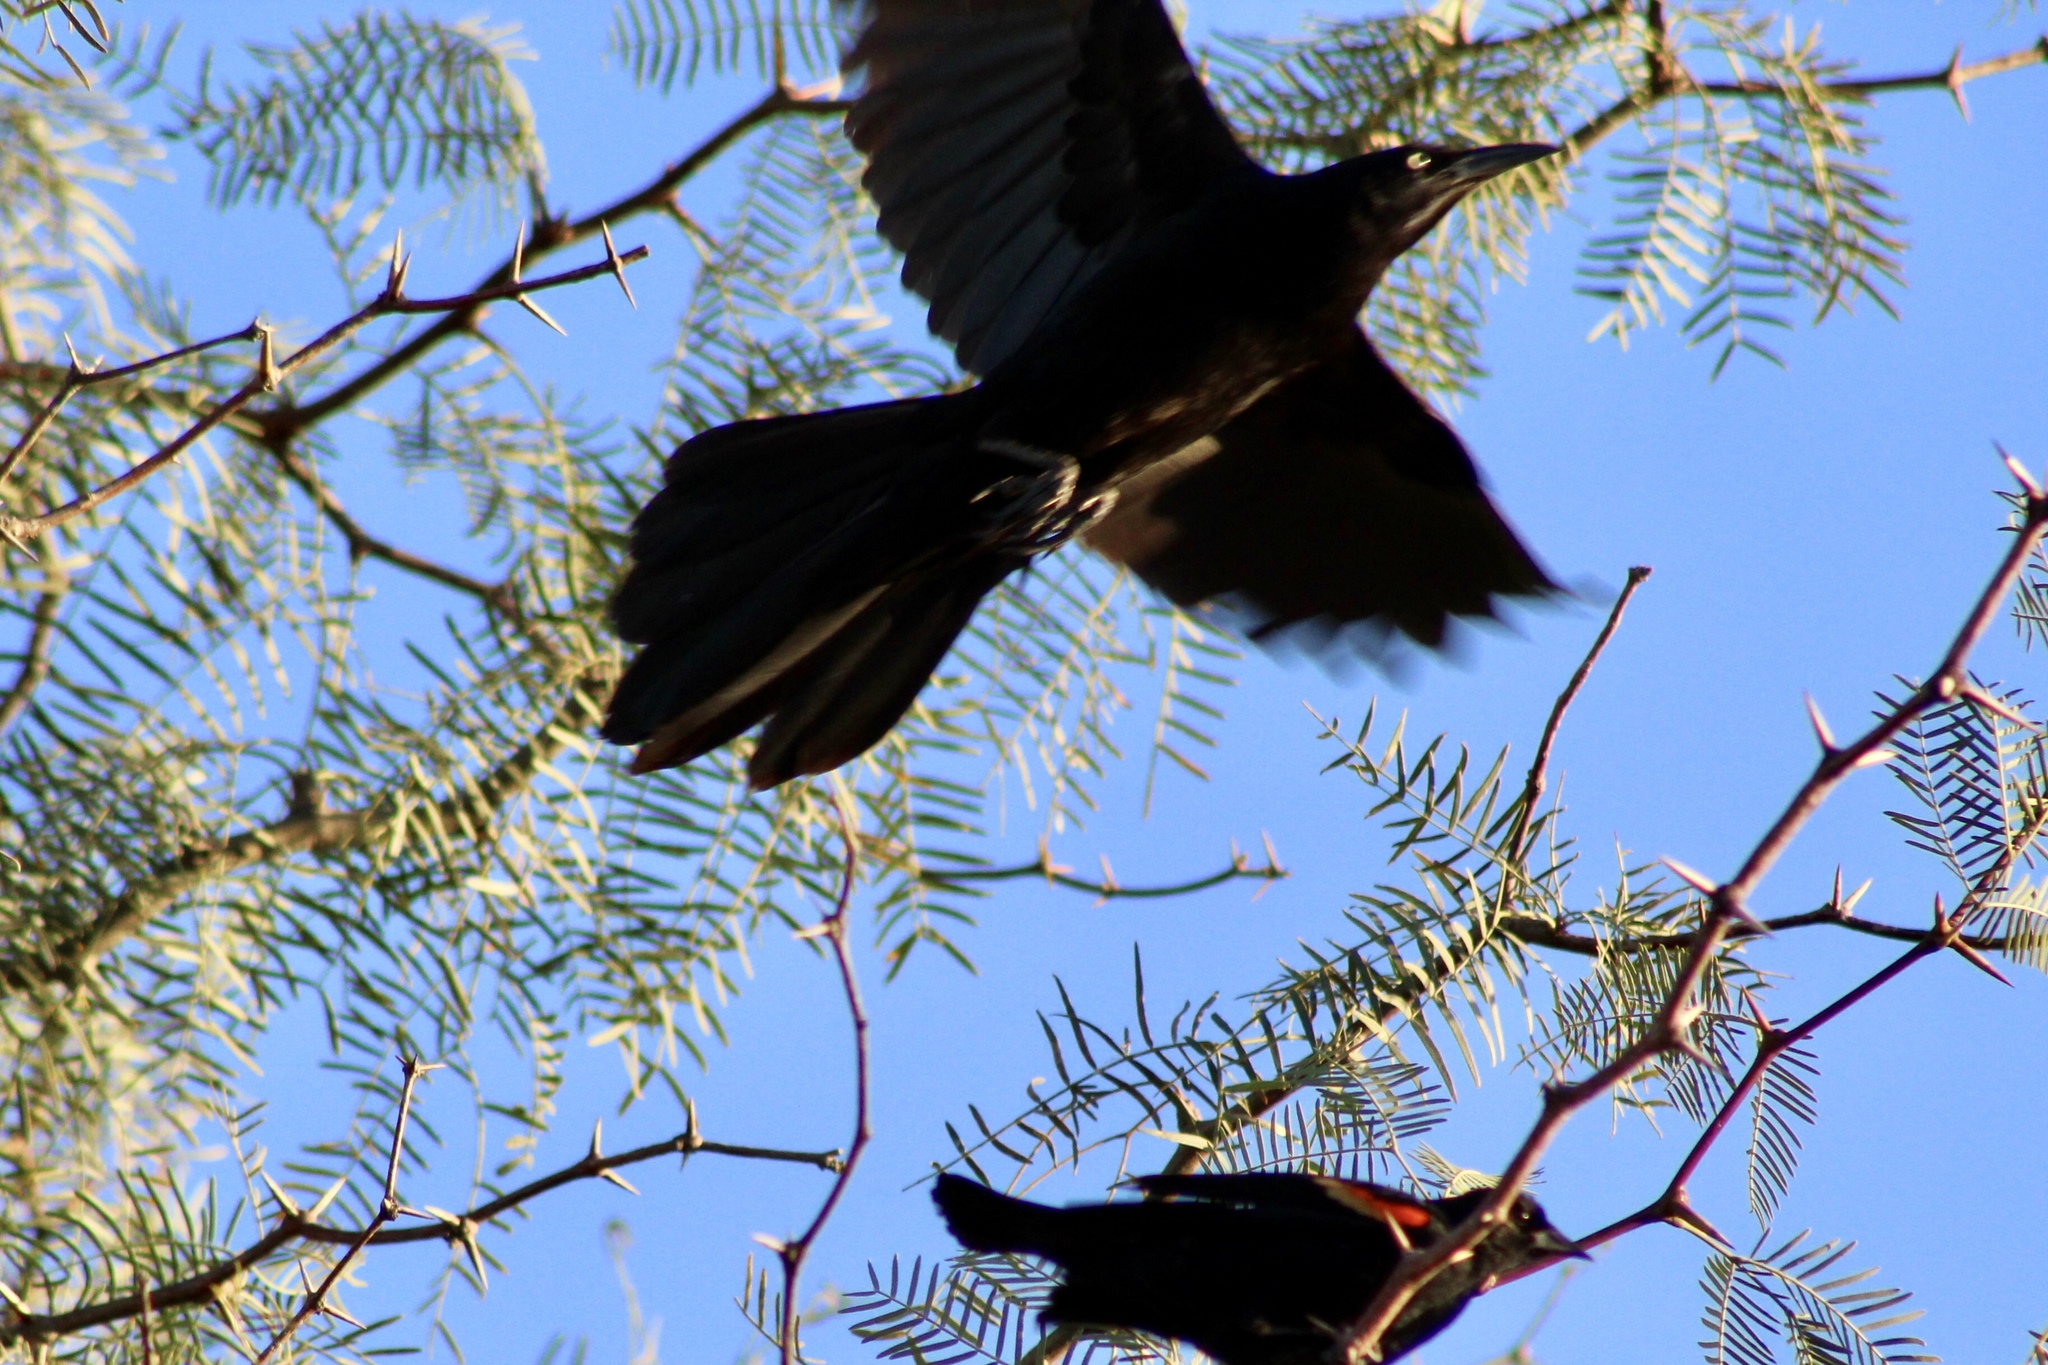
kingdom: Animalia
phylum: Chordata
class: Aves
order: Passeriformes
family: Icteridae
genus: Quiscalus
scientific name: Quiscalus mexicanus
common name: Great-tailed grackle
